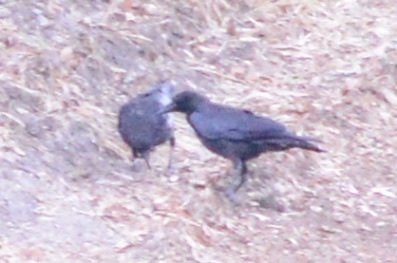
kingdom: Animalia
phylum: Chordata
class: Aves
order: Passeriformes
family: Corvidae
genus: Corvus
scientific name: Corvus brachyrhynchos
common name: American crow
